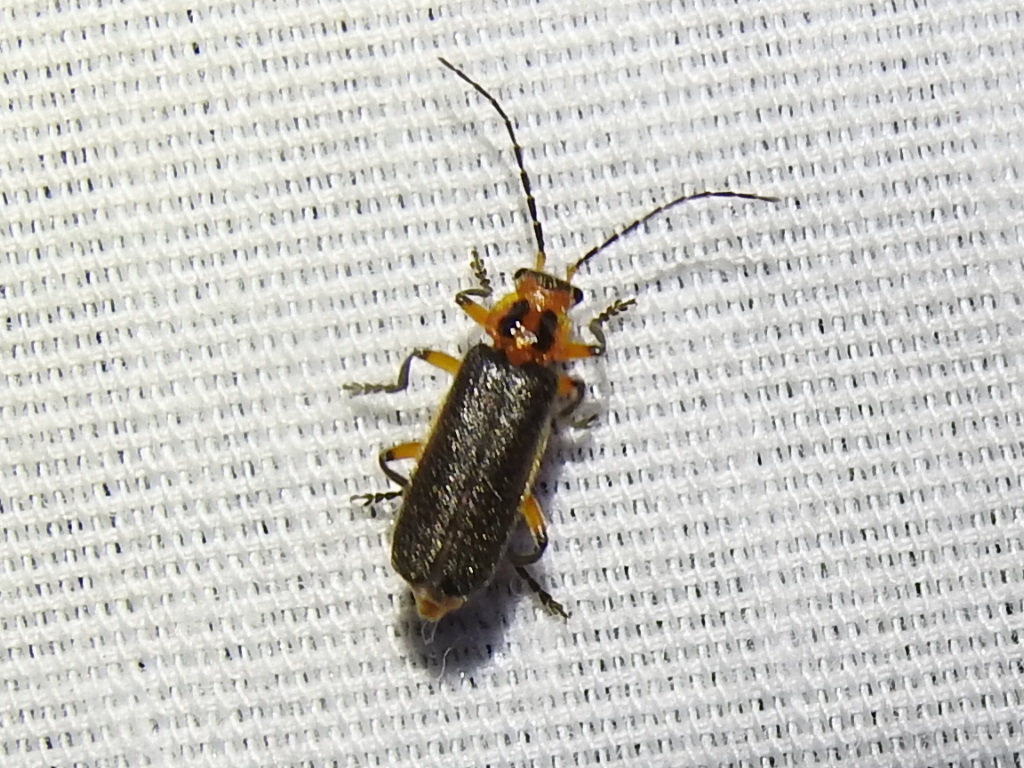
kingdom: Animalia
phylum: Arthropoda
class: Insecta
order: Coleoptera
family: Cantharidae
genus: Atalantycha
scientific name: Atalantycha bilineata
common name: Two-lined leatherwing
